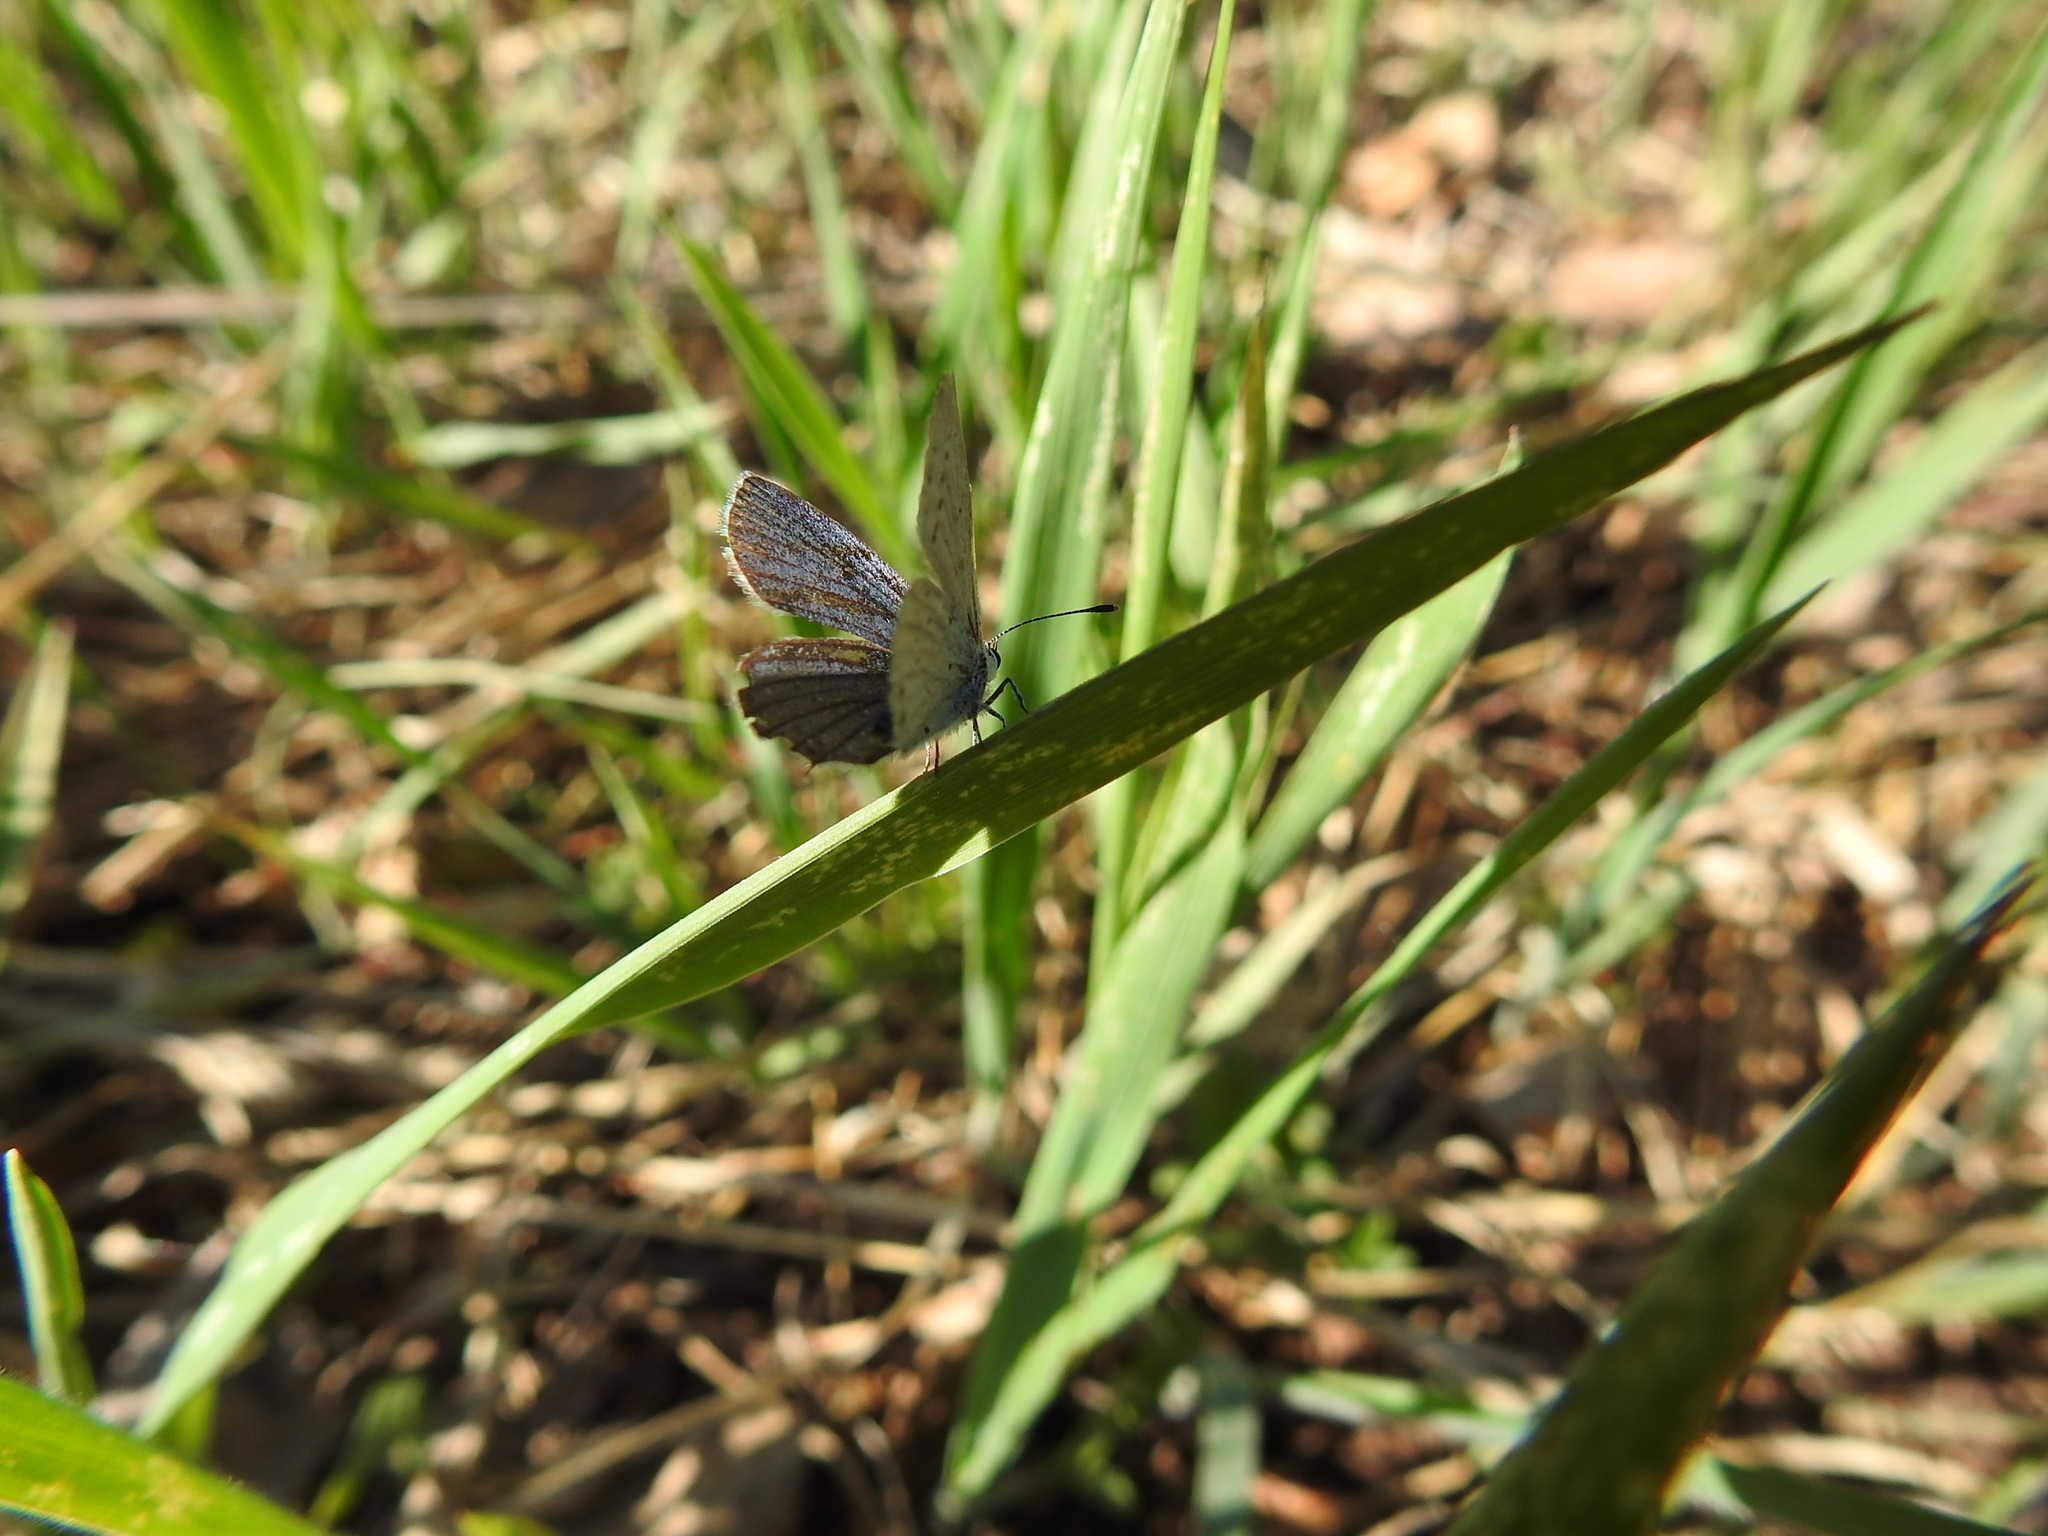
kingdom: Animalia
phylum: Arthropoda
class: Insecta
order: Lepidoptera
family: Lycaenidae
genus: Elkalyce
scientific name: Elkalyce argiades
